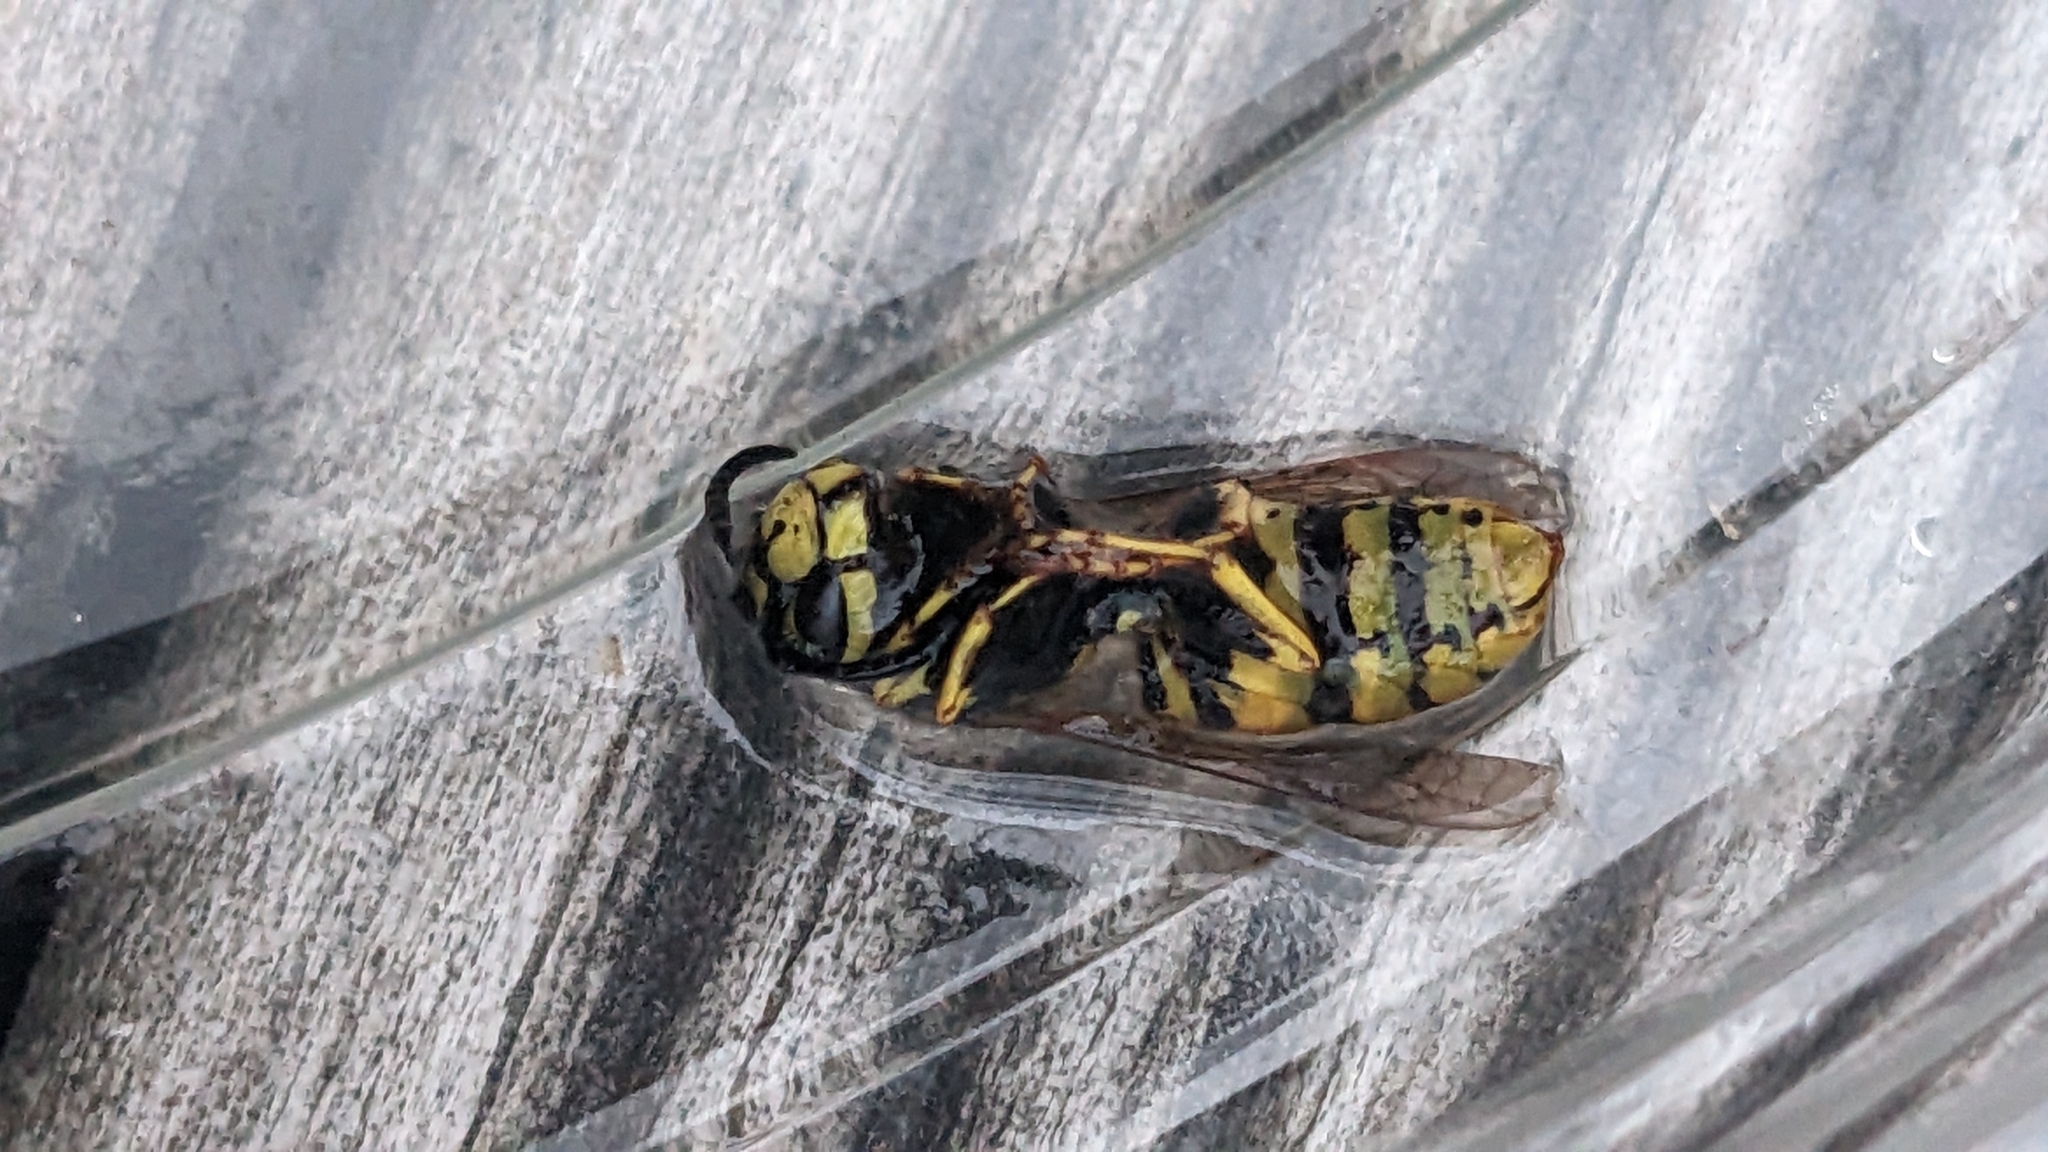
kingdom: Animalia
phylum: Arthropoda
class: Insecta
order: Hymenoptera
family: Vespidae
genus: Vespula
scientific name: Vespula germanica
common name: German wasp
